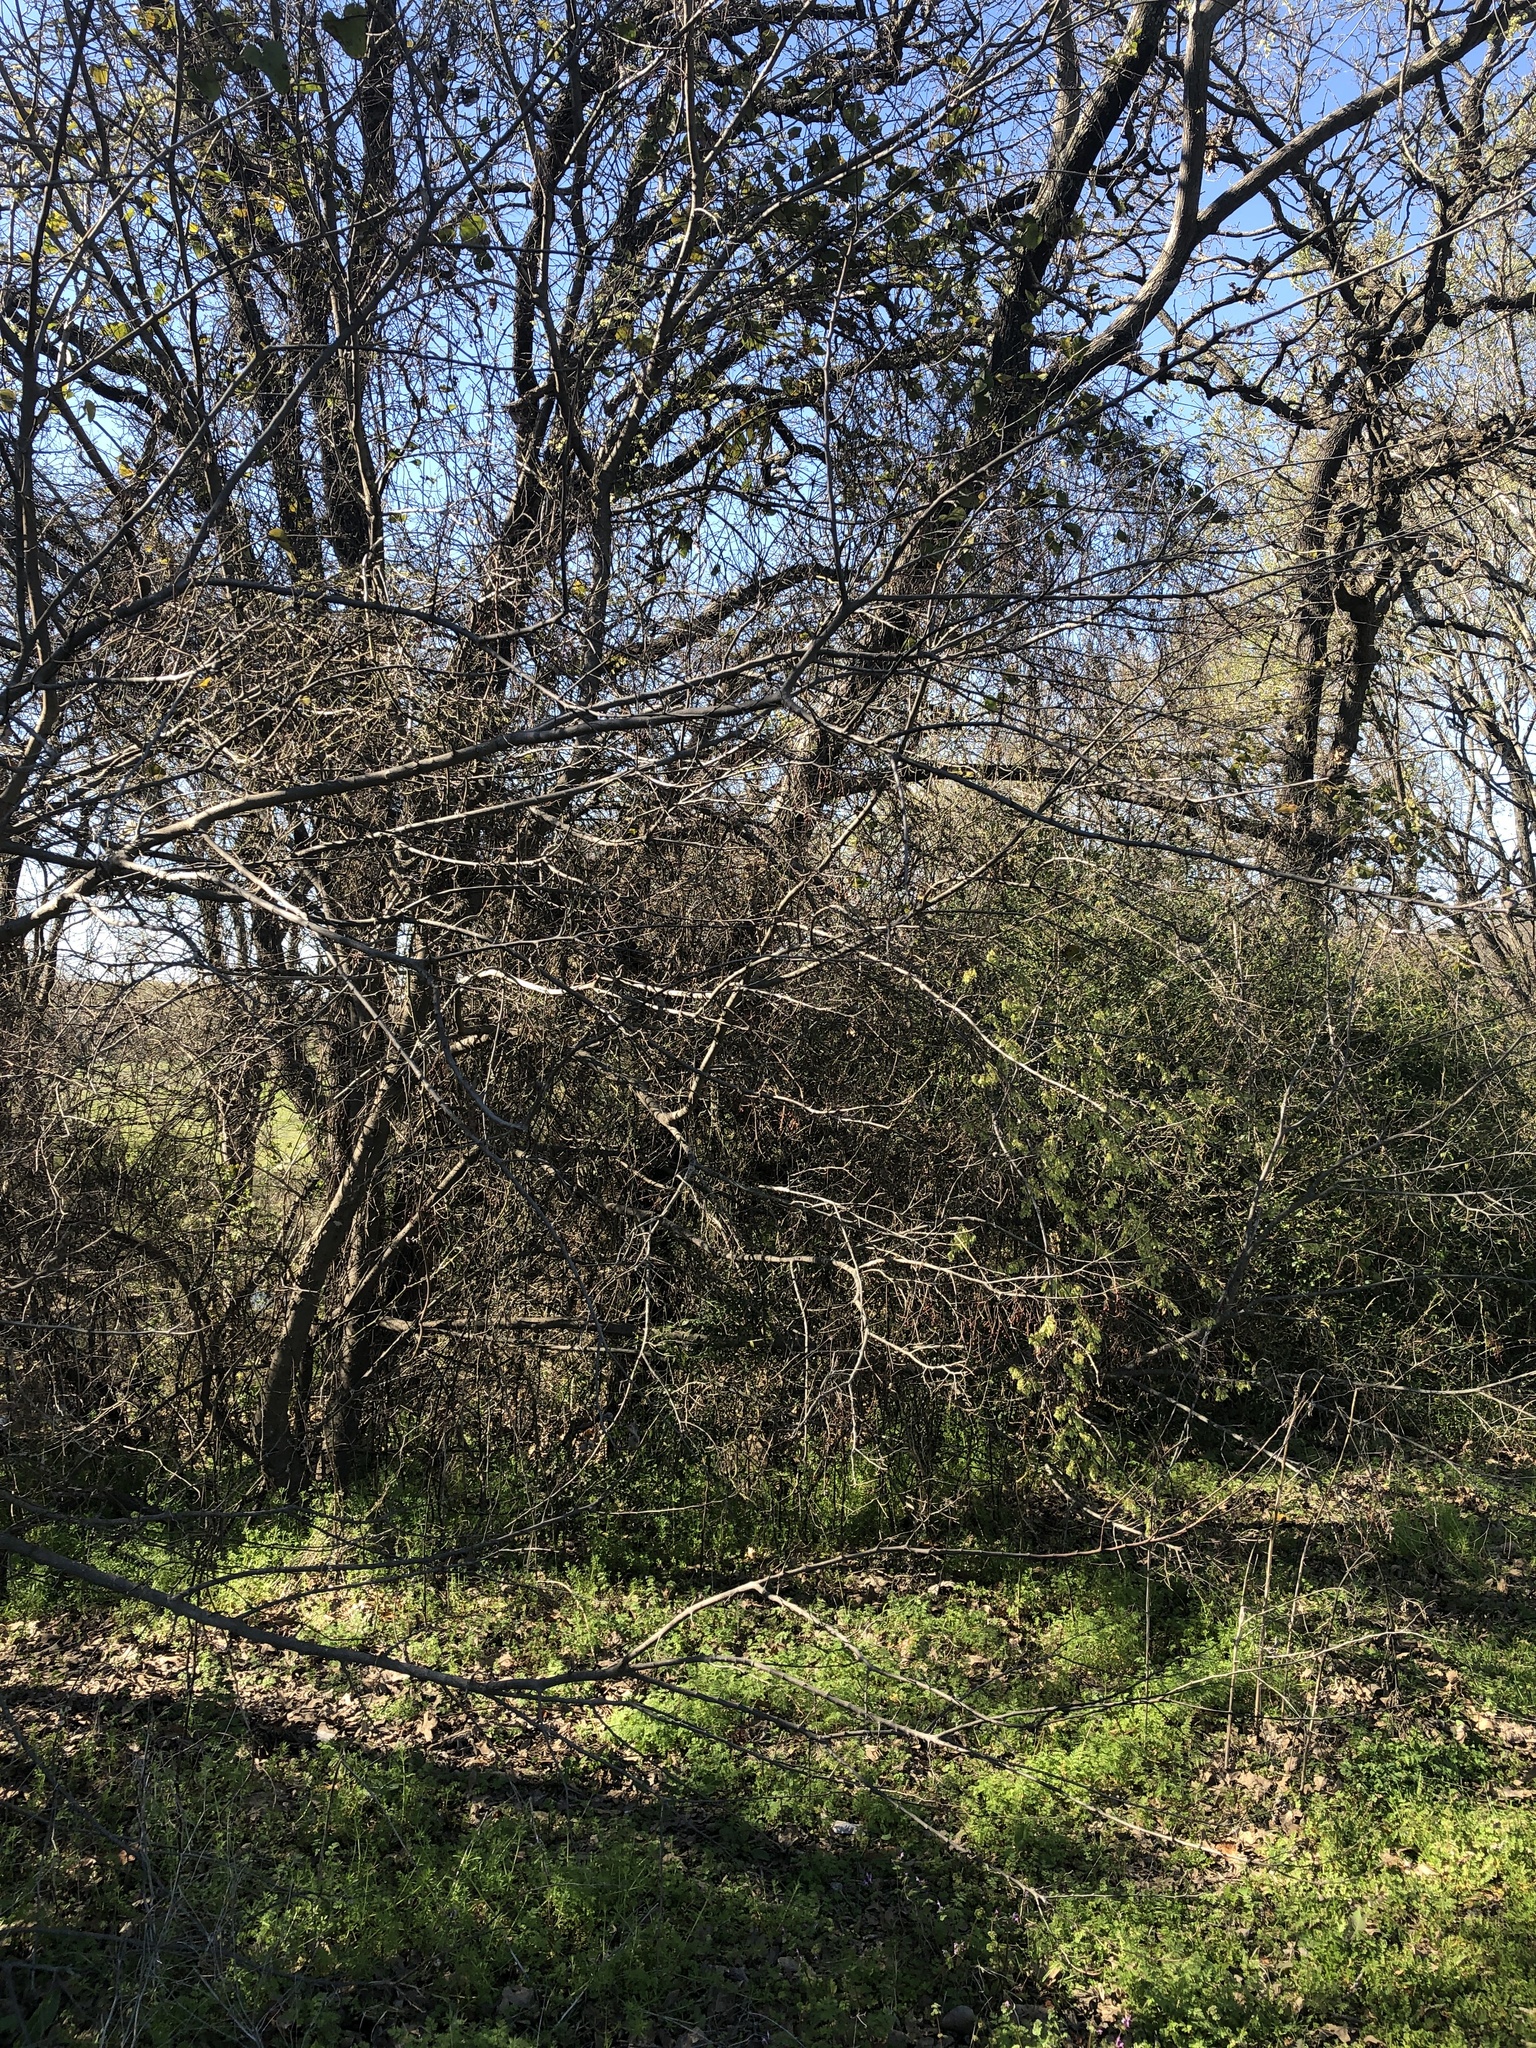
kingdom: Plantae
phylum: Tracheophyta
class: Magnoliopsida
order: Rosales
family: Cannabaceae
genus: Celtis
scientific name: Celtis laevigata
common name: Sugarberry
